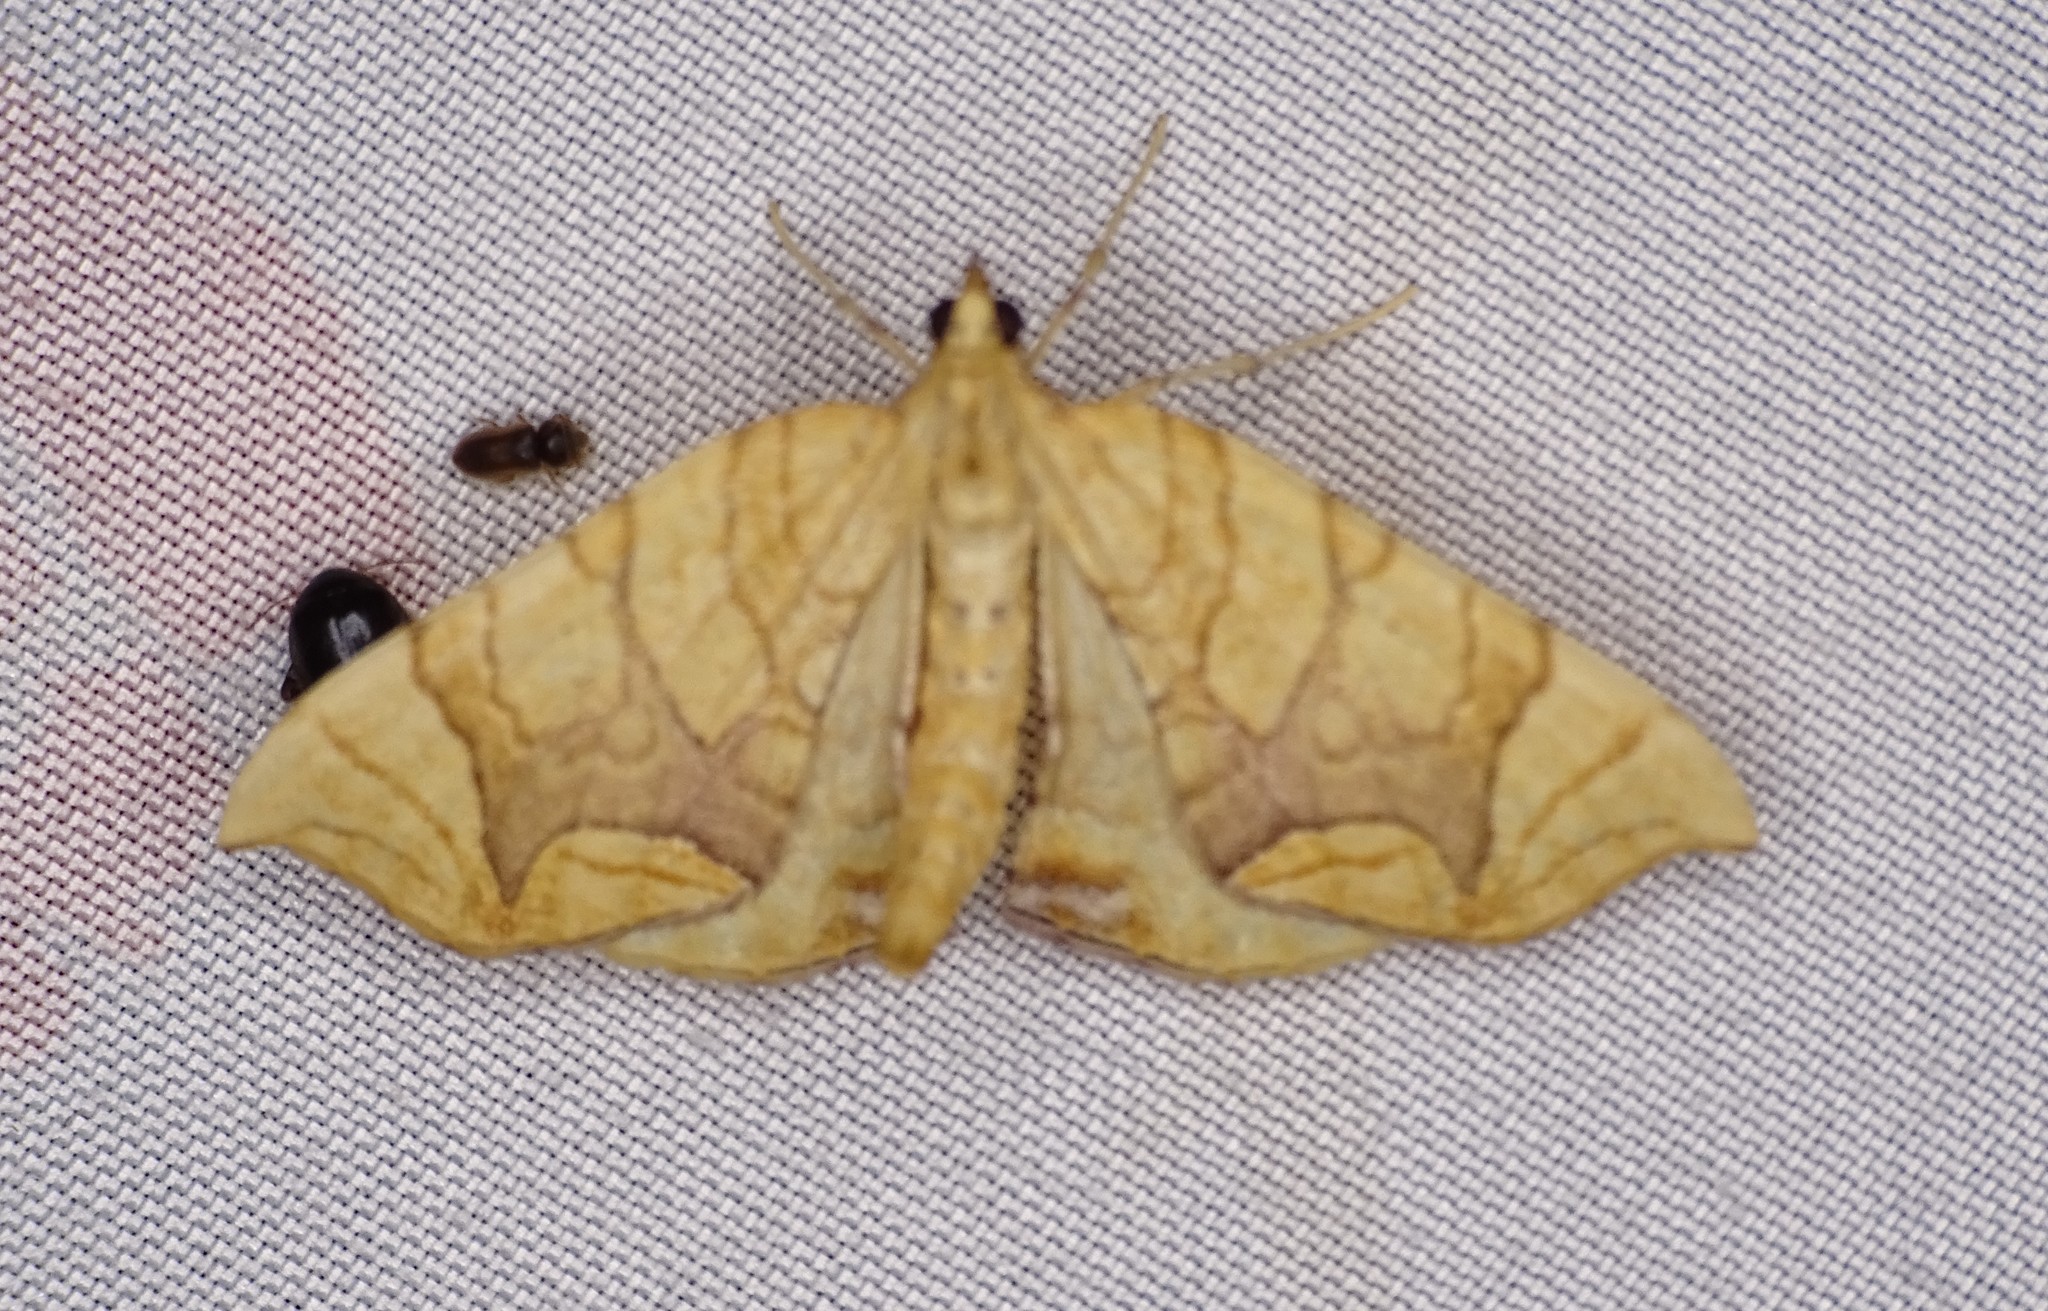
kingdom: Animalia
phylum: Arthropoda
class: Insecta
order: Lepidoptera
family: Geometridae
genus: Eulithis
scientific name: Eulithis
